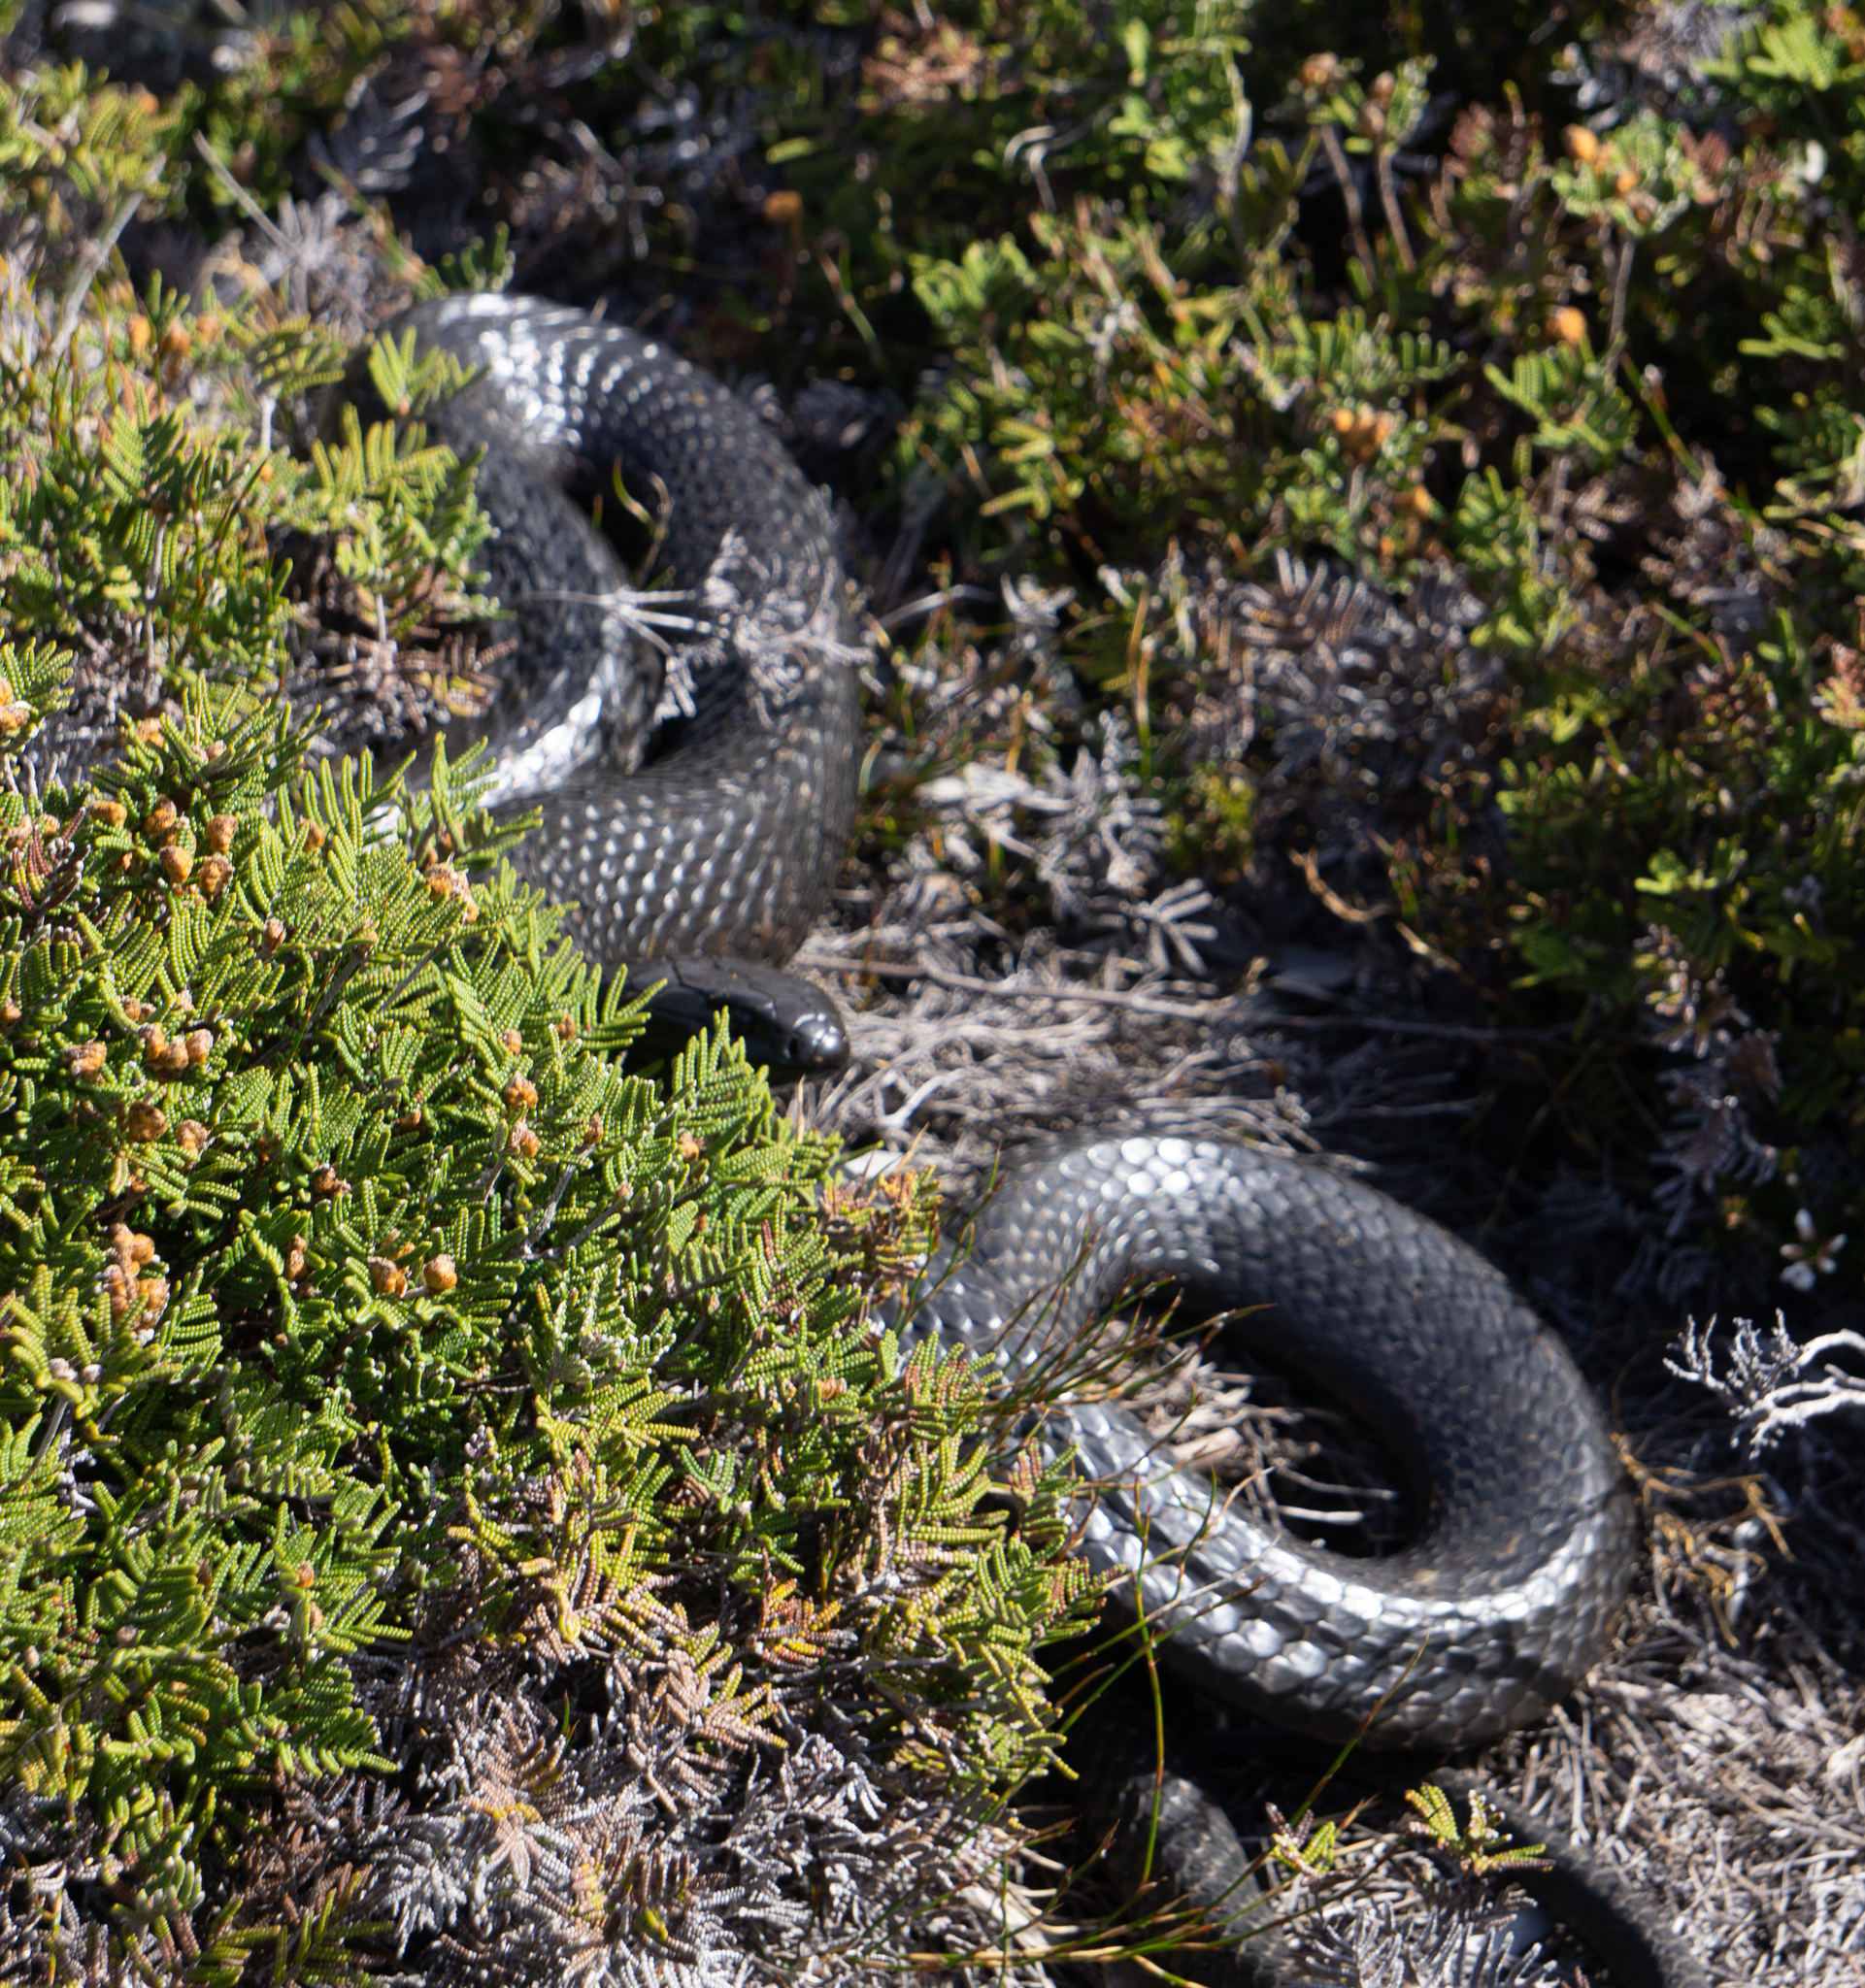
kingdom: Animalia
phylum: Chordata
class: Squamata
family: Elapidae
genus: Notechis
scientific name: Notechis scutatus
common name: Mainland tiger snake
